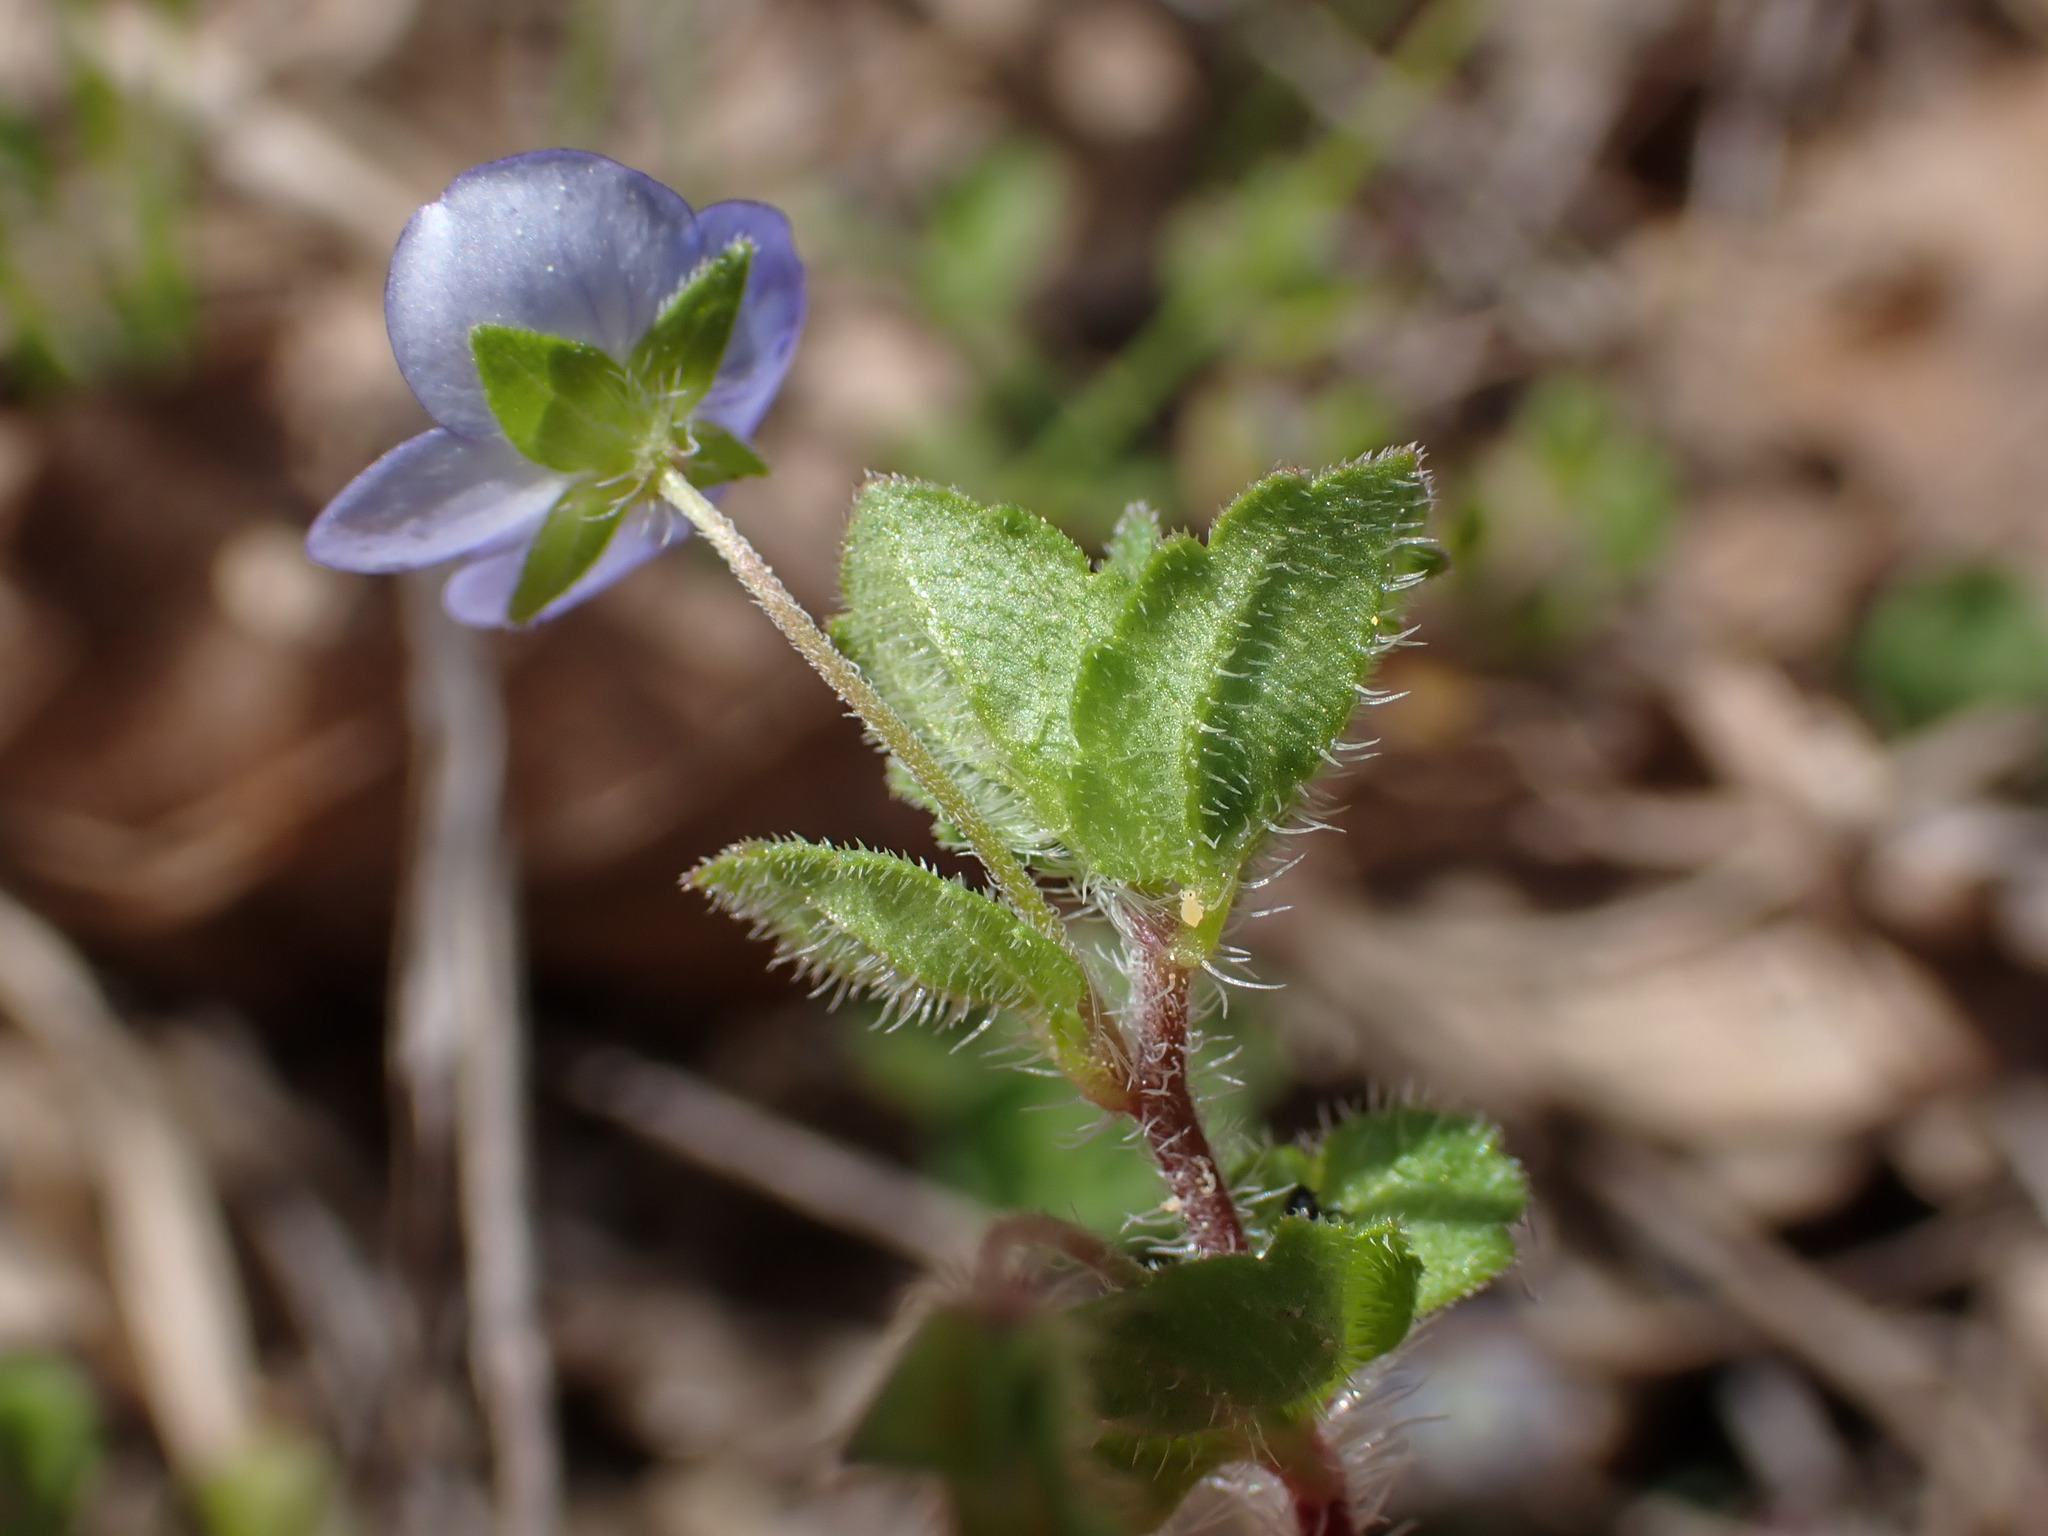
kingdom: Plantae
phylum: Tracheophyta
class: Magnoliopsida
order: Lamiales
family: Plantaginaceae
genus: Veronica
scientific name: Veronica persica
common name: Common field-speedwell
